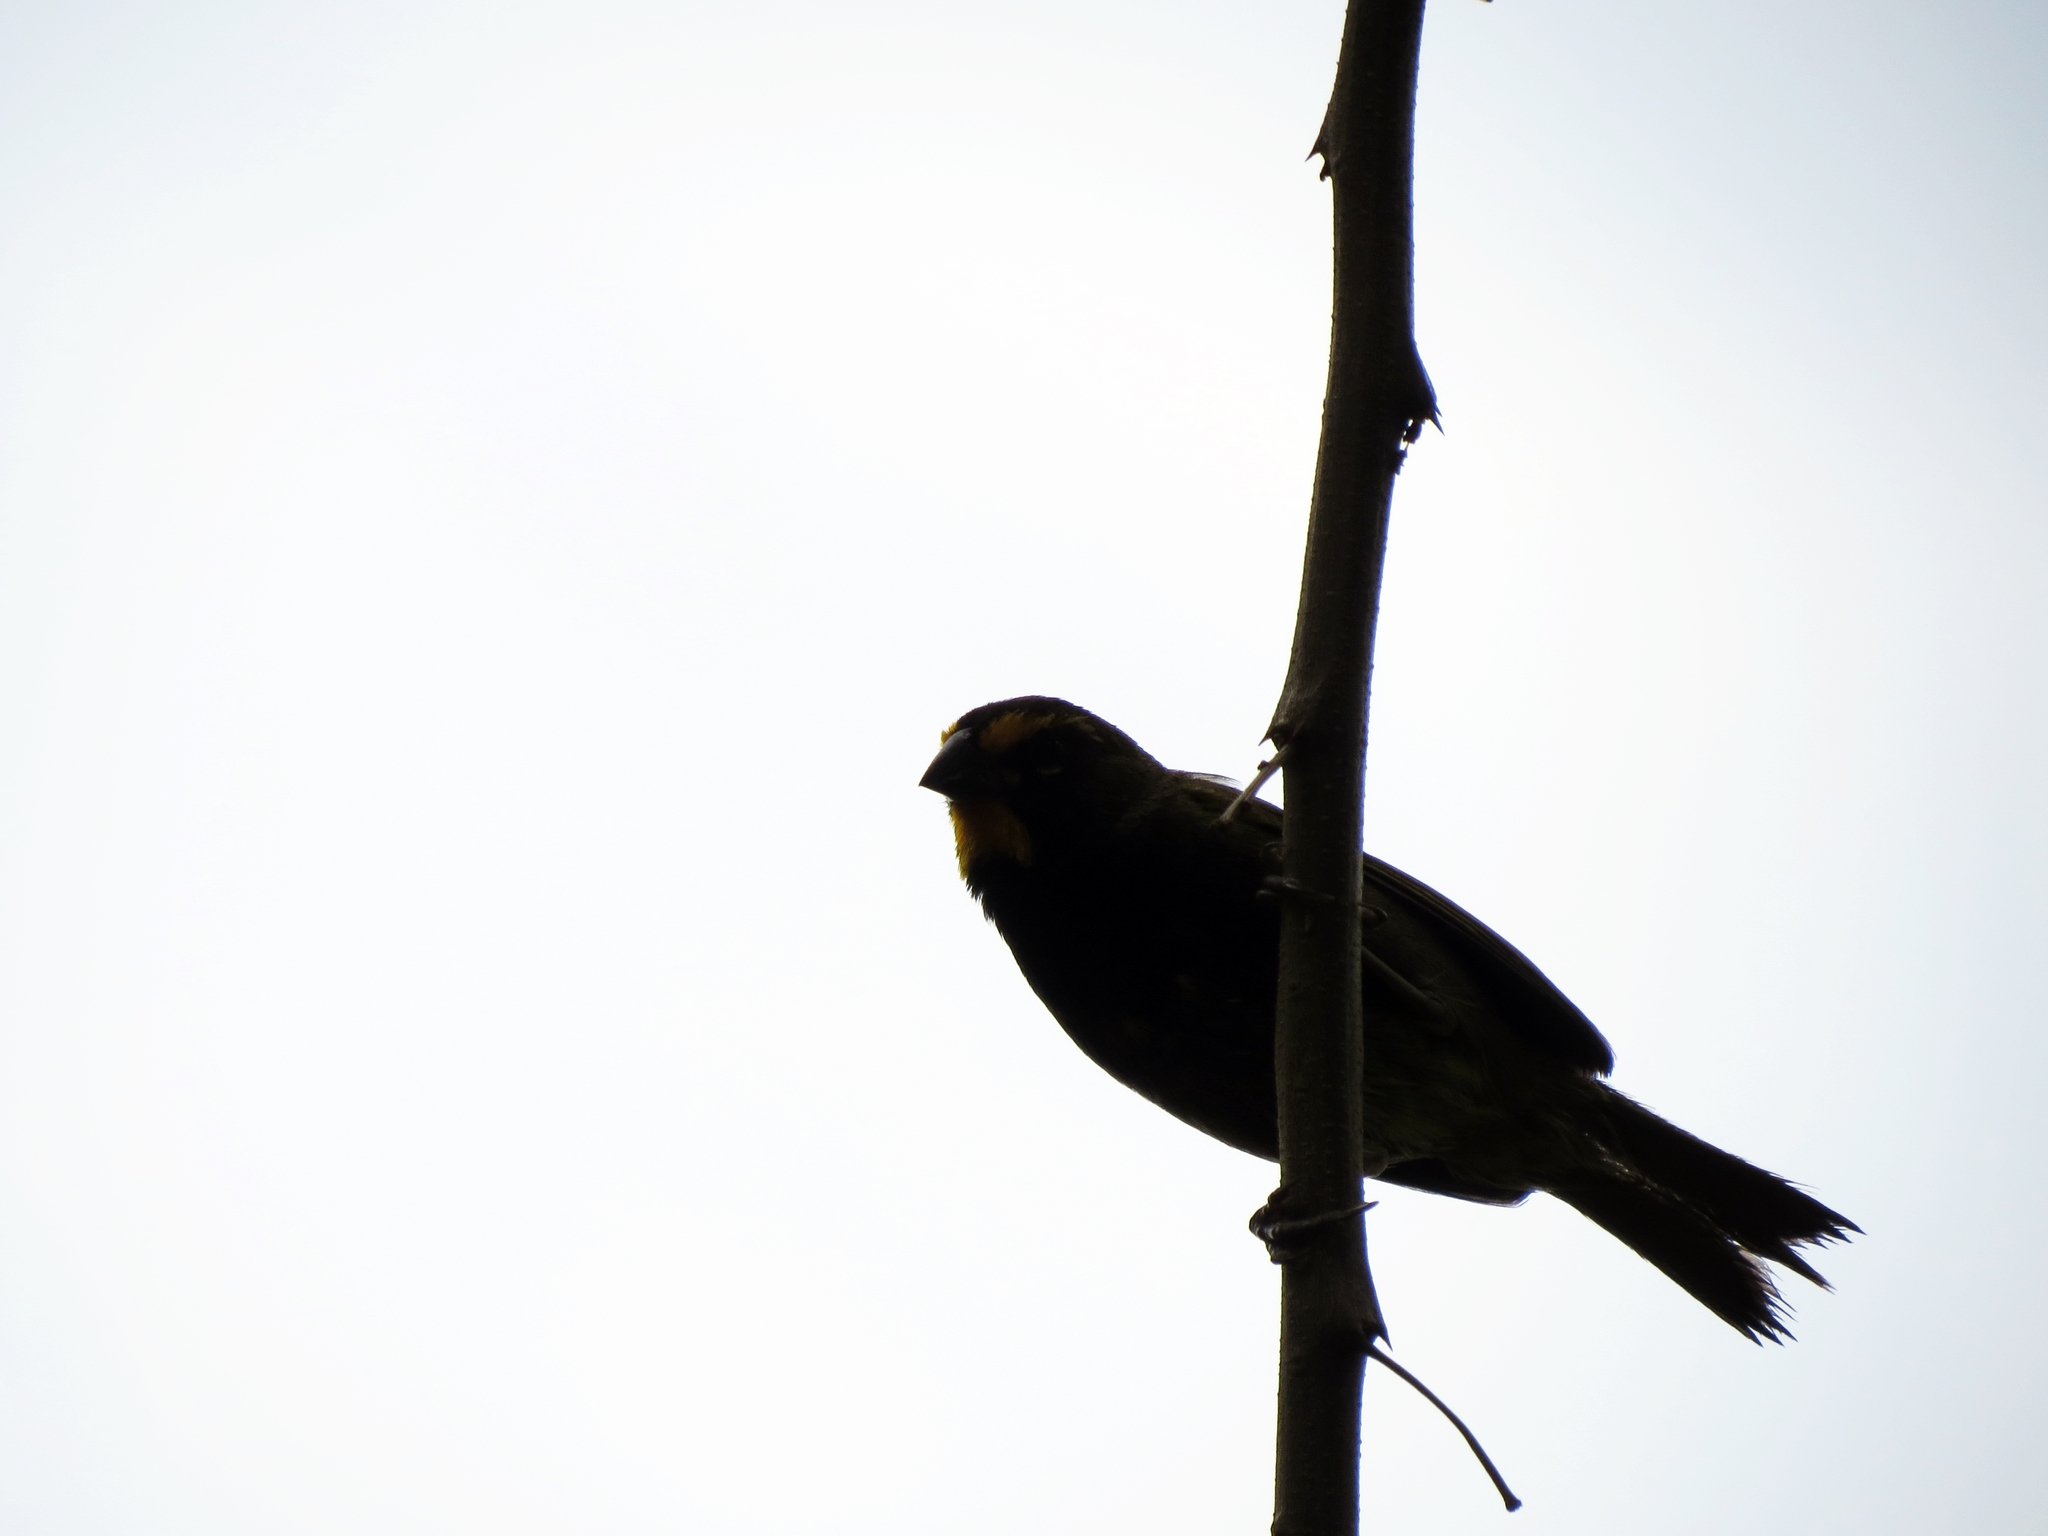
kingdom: Animalia
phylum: Chordata
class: Aves
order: Passeriformes
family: Thraupidae
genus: Tiaris
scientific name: Tiaris olivaceus
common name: Yellow-faced grassquit
